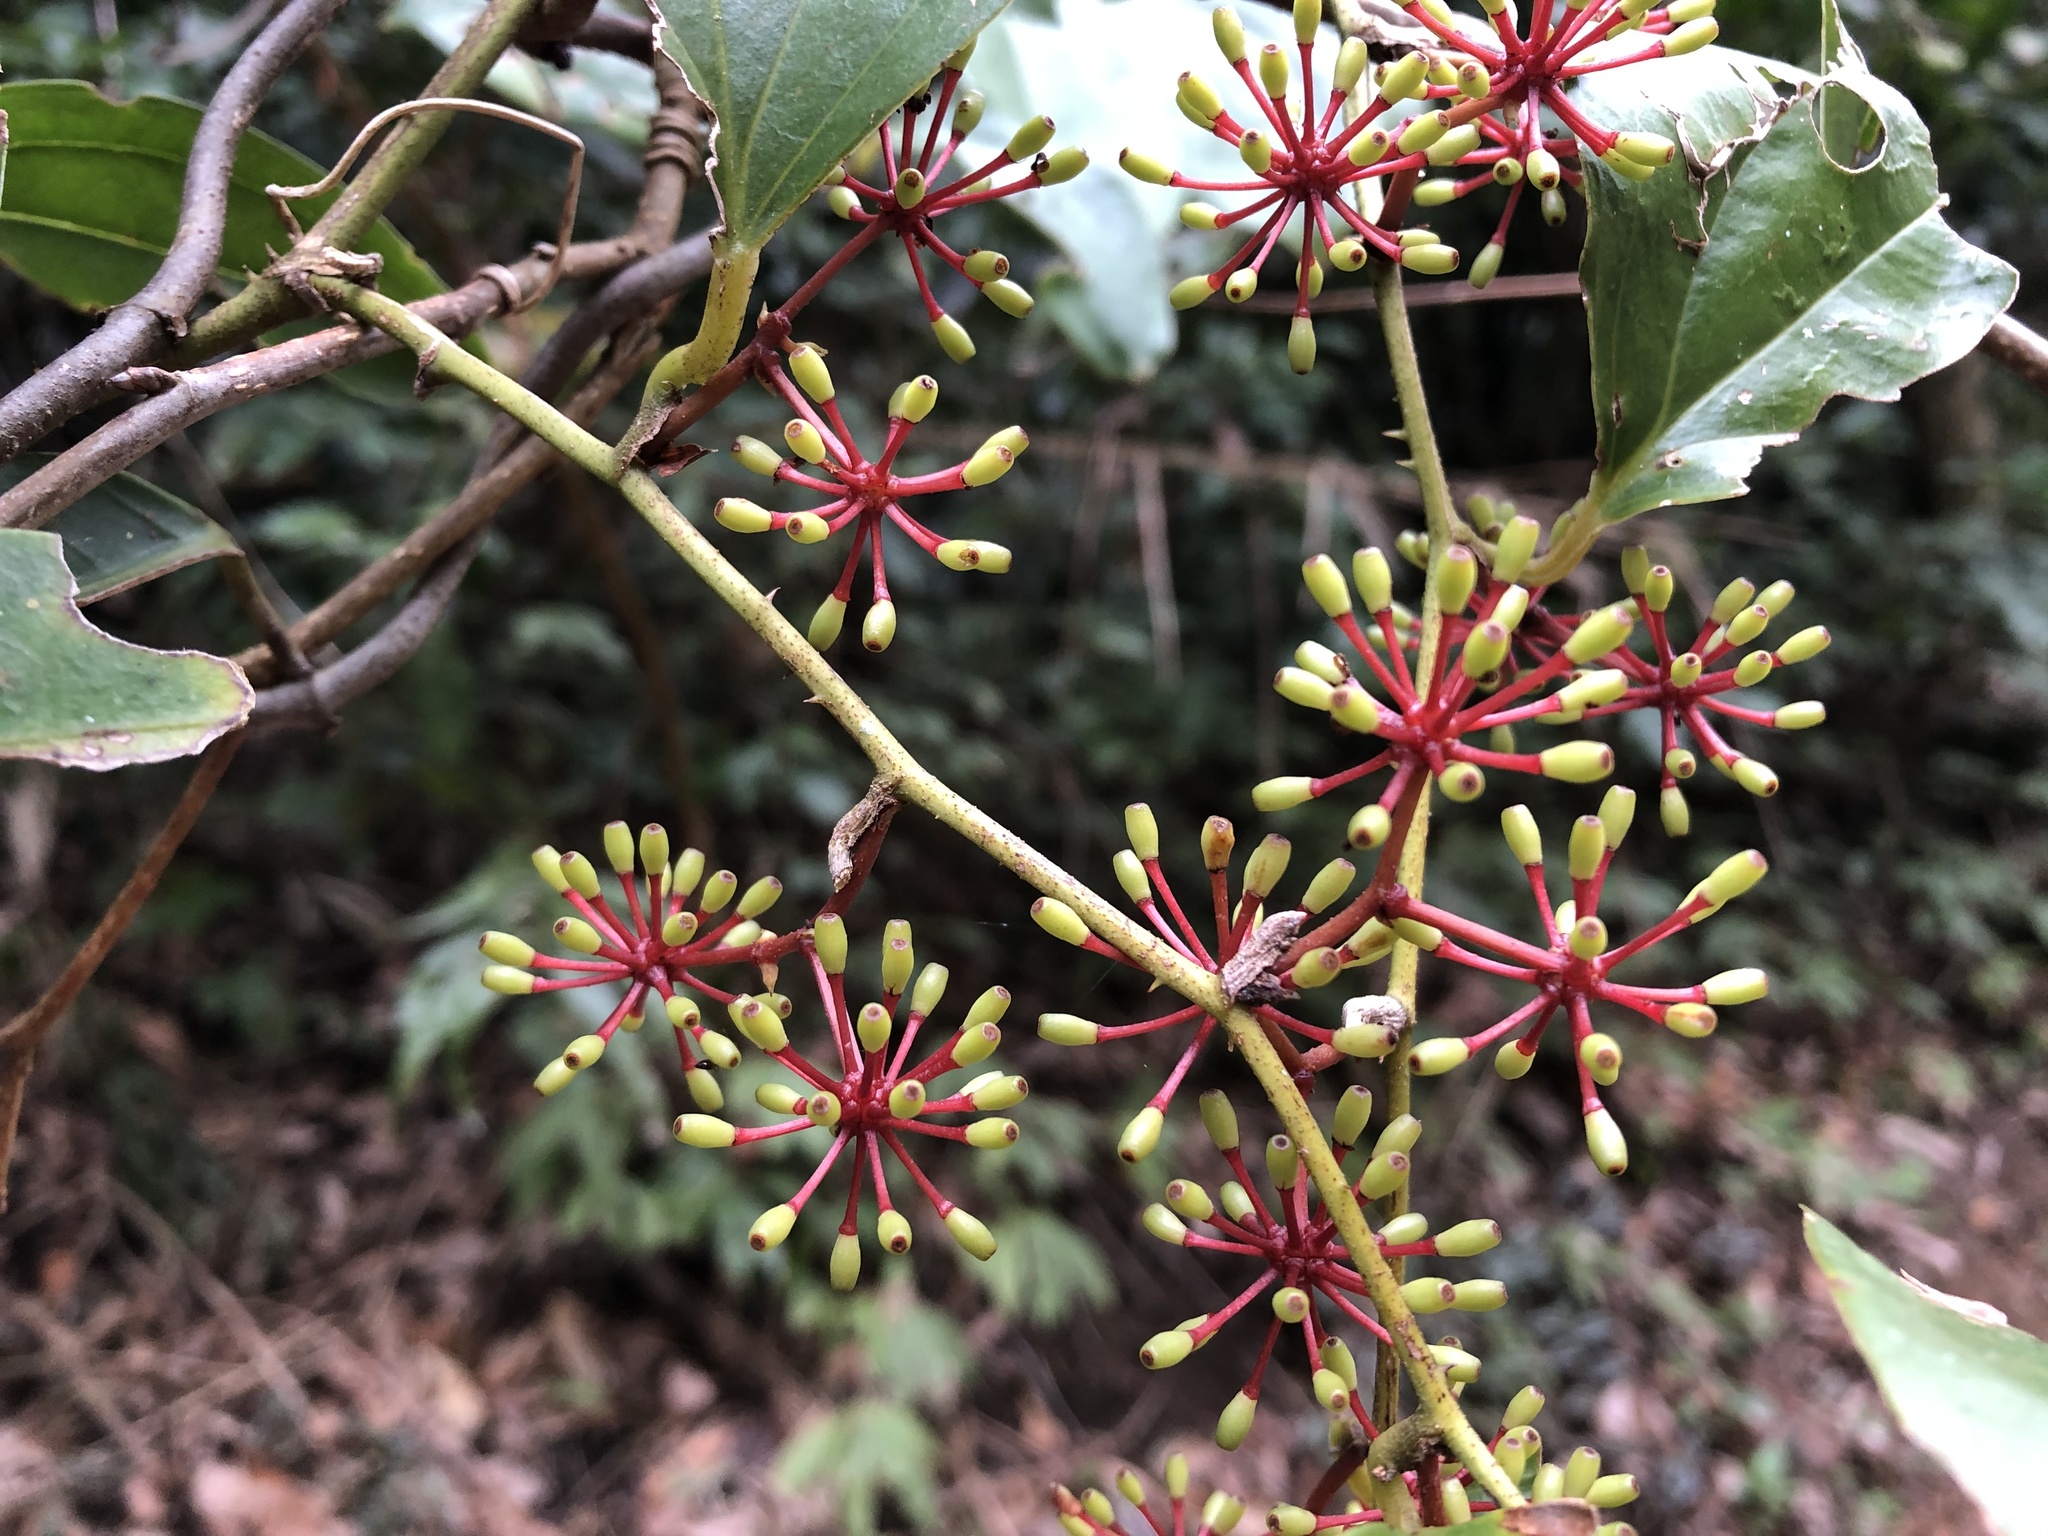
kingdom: Plantae
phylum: Tracheophyta
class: Liliopsida
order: Liliales
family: Smilacaceae
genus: Smilax
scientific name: Smilax aspericaulis
